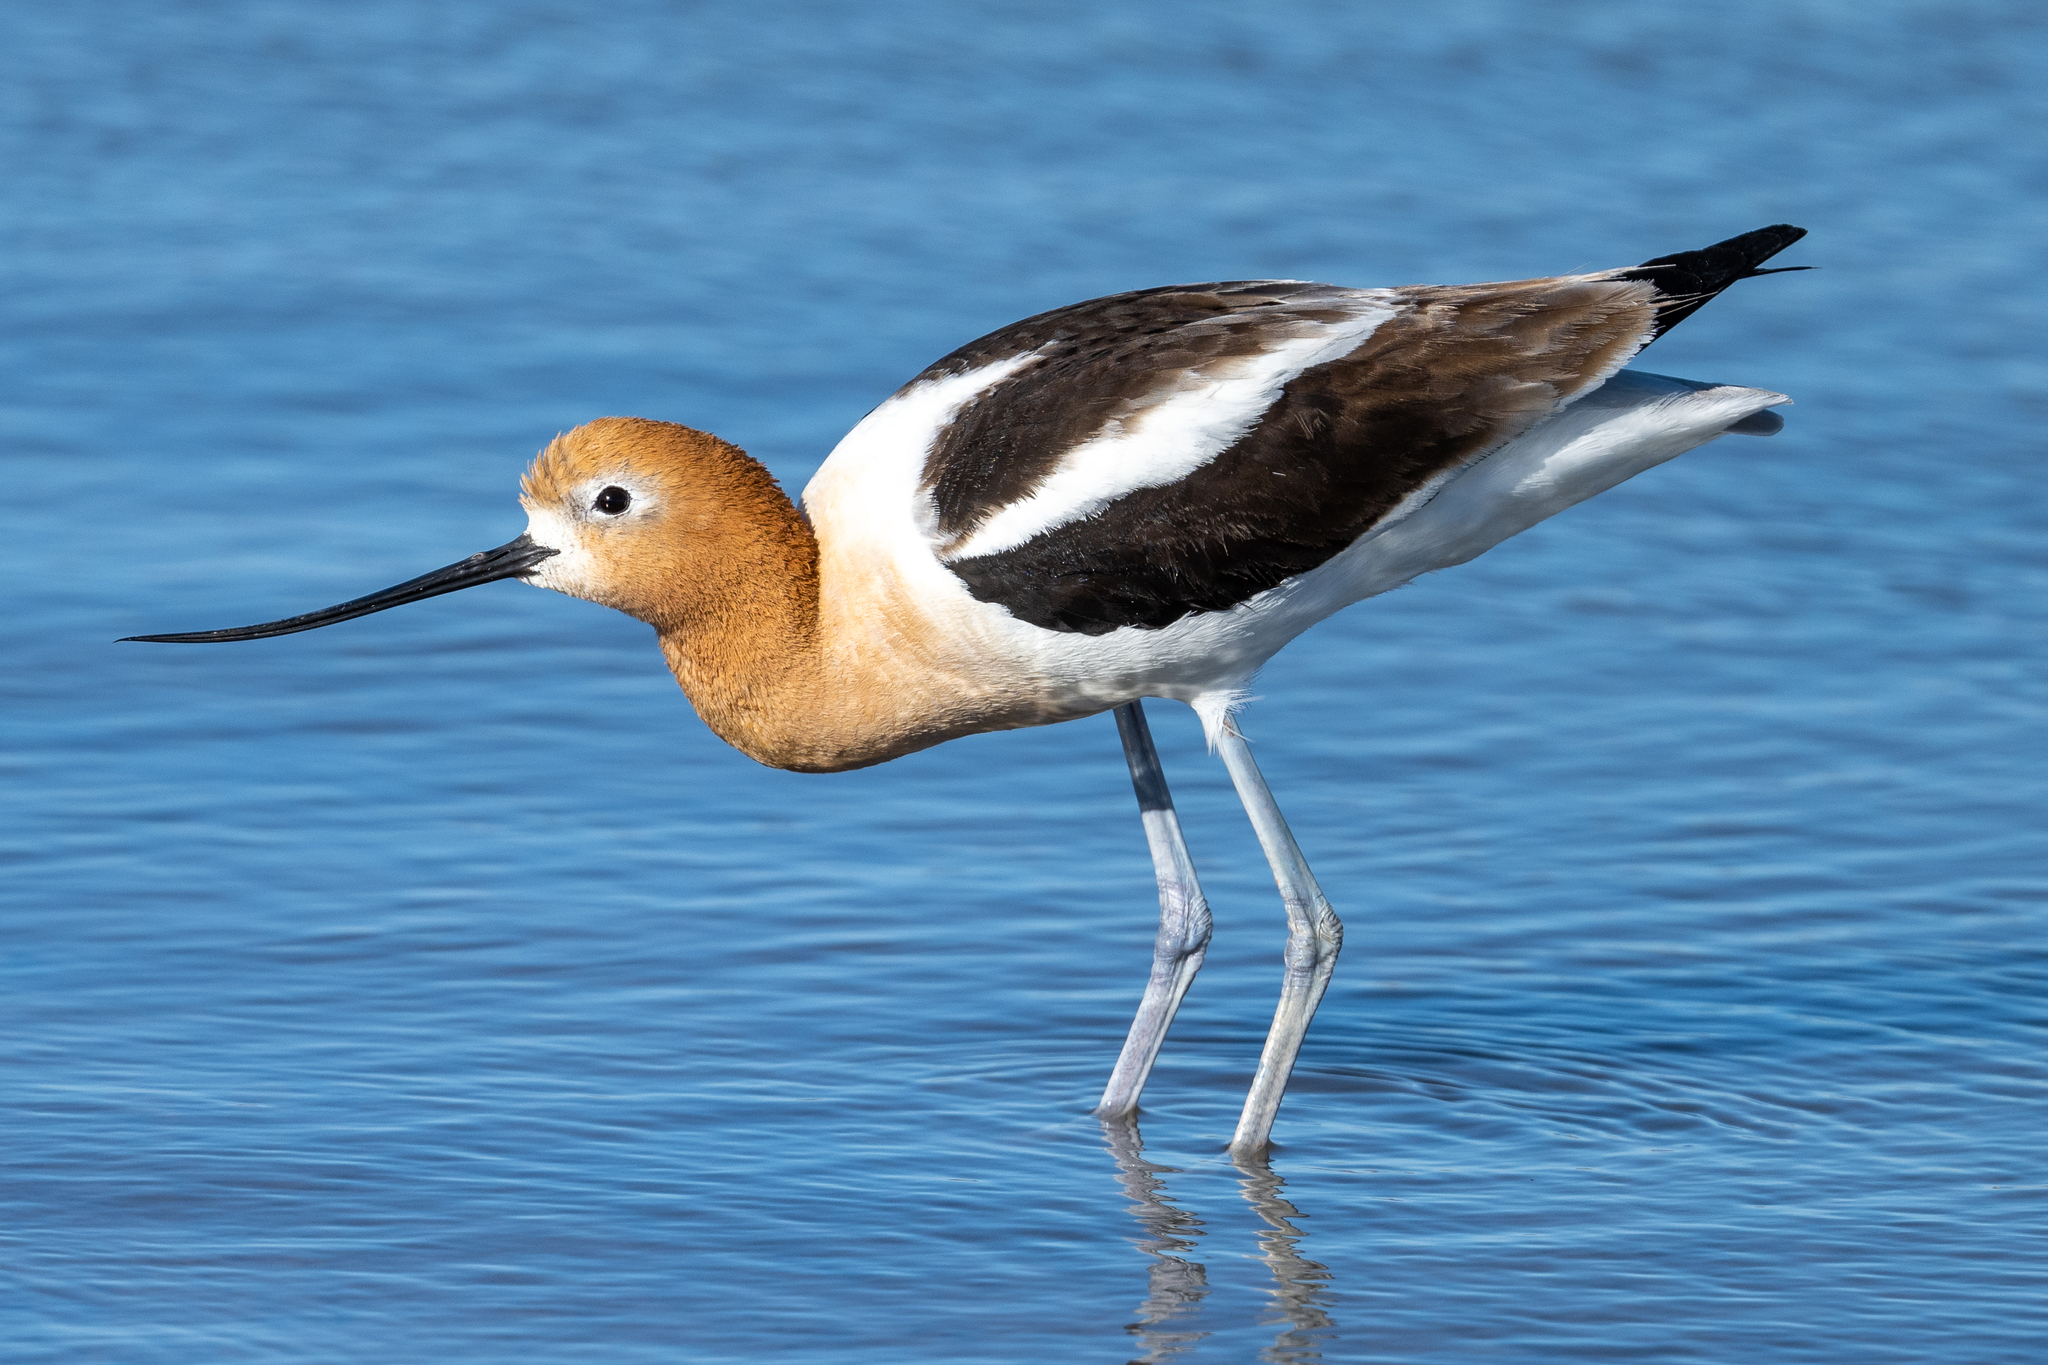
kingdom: Animalia
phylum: Chordata
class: Aves
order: Charadriiformes
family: Recurvirostridae
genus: Recurvirostra
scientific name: Recurvirostra americana
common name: American avocet
